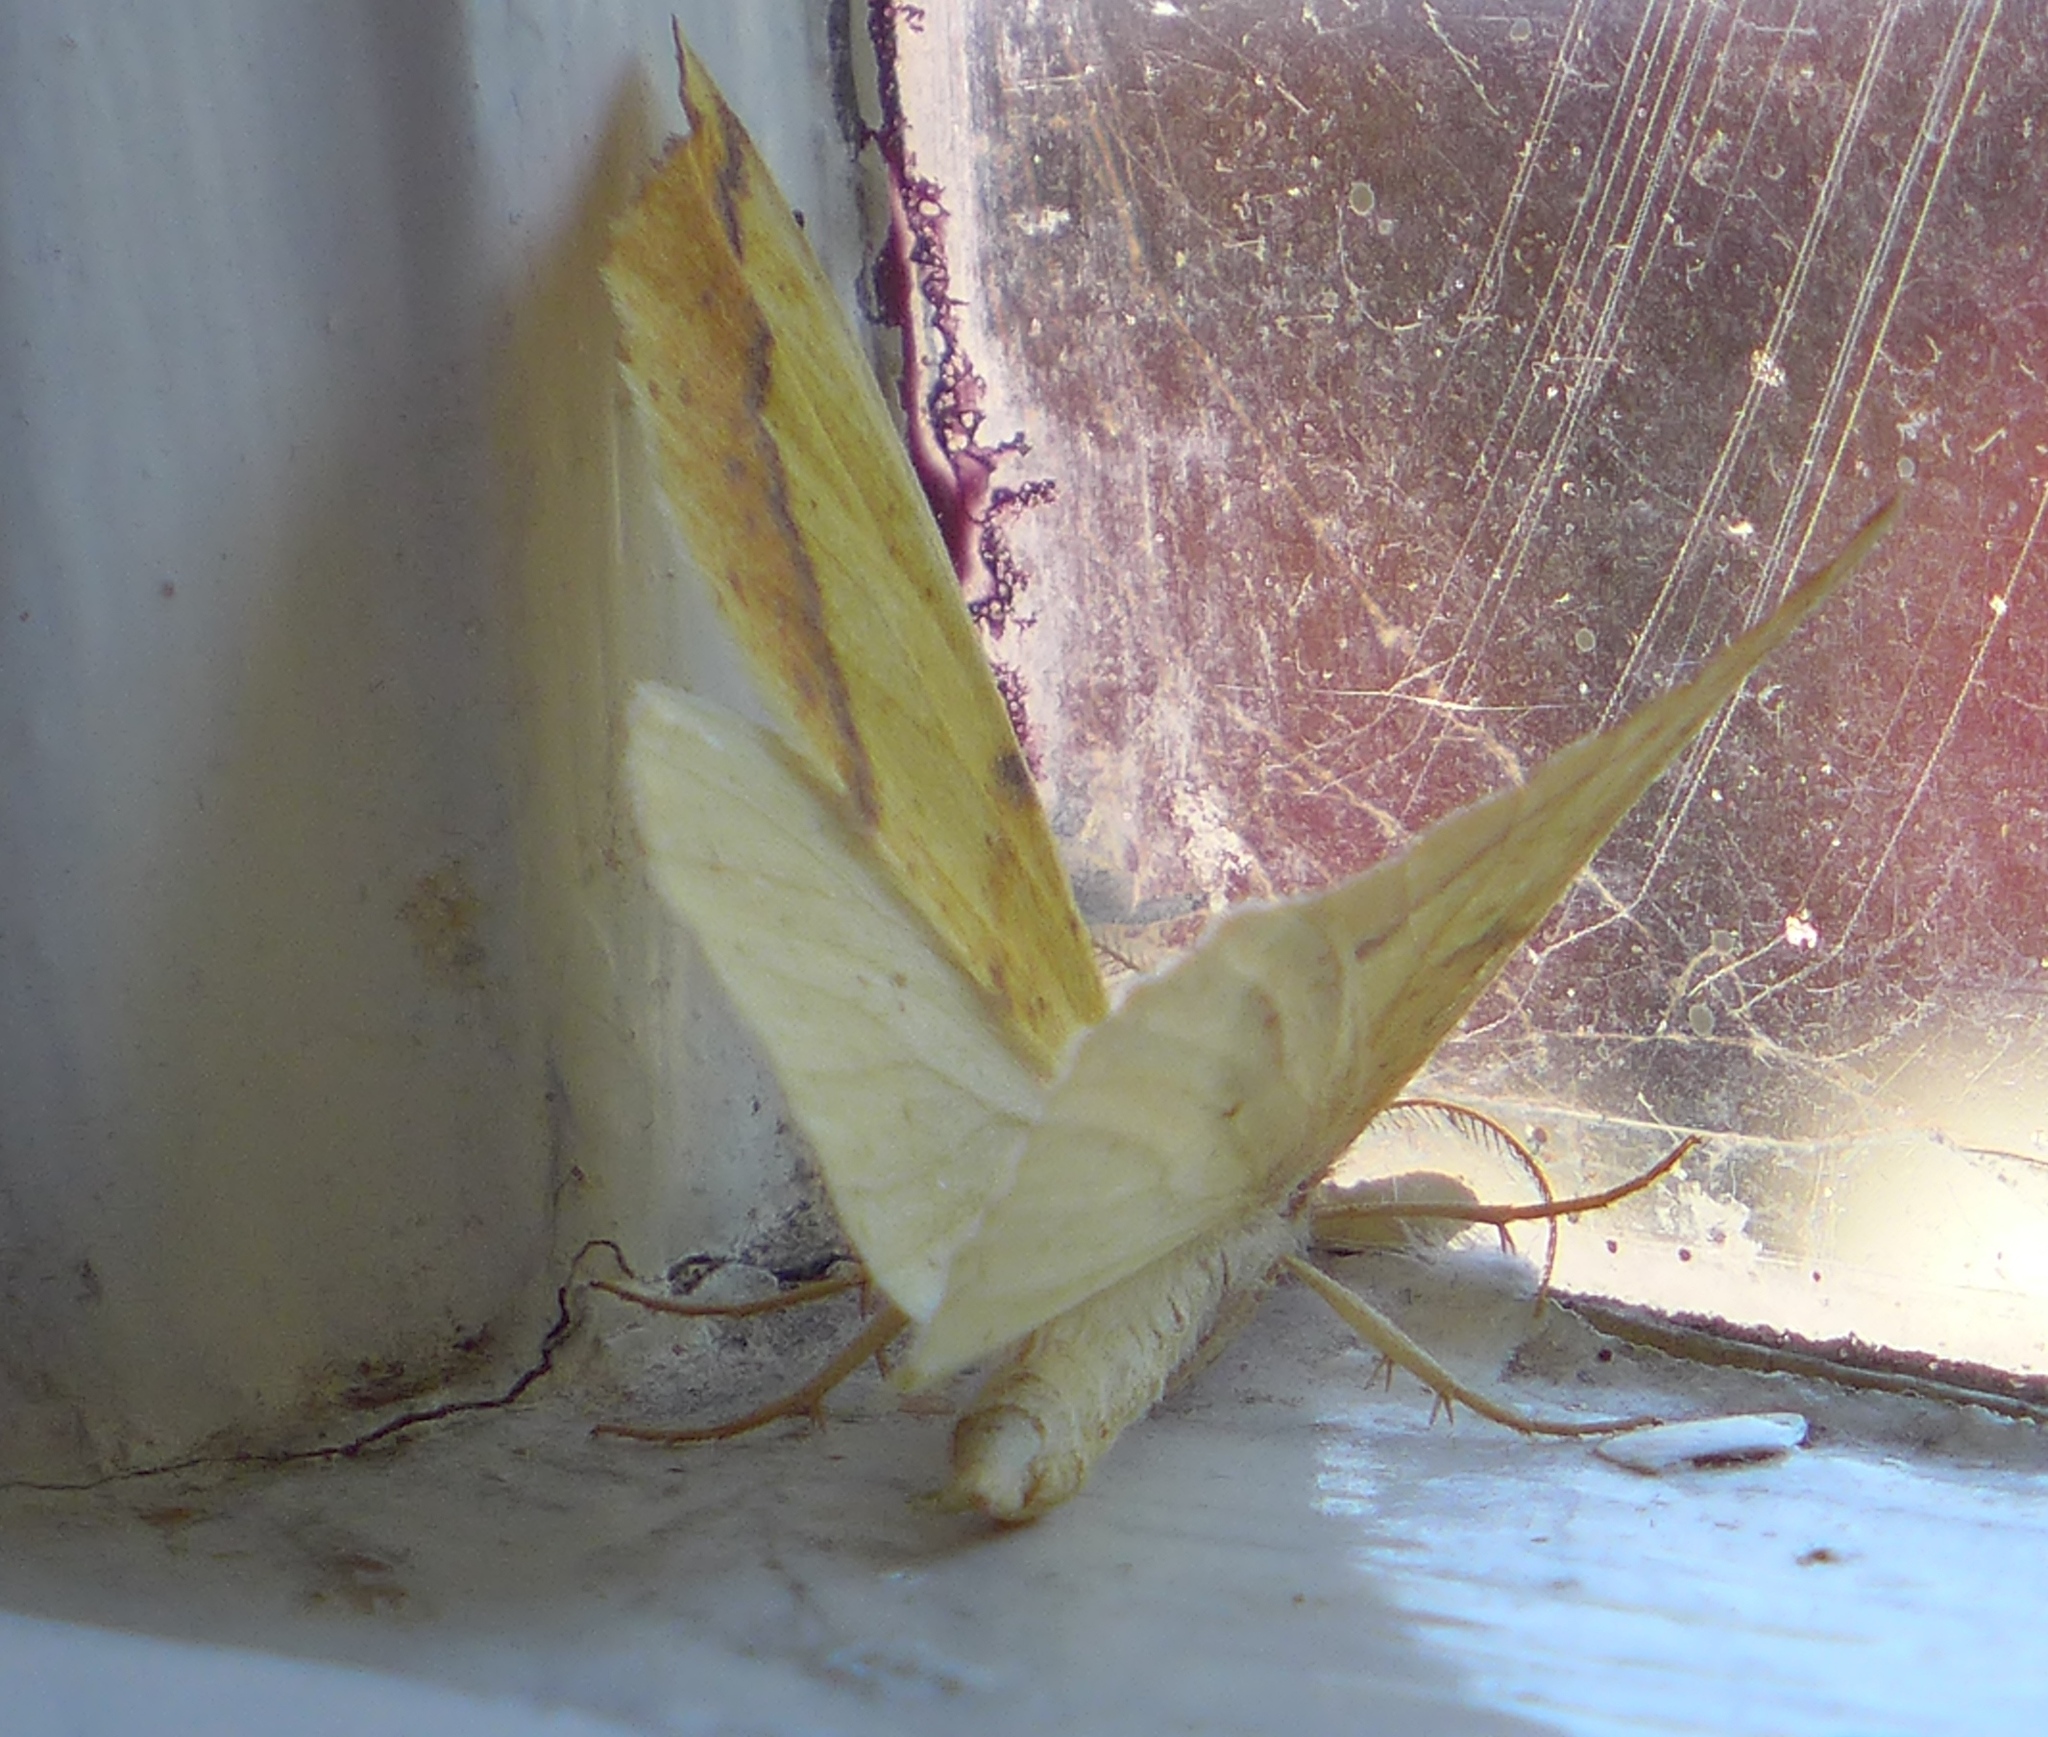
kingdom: Animalia
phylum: Arthropoda
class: Insecta
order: Lepidoptera
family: Geometridae
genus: Neoterpes
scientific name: Neoterpes edwardsata
